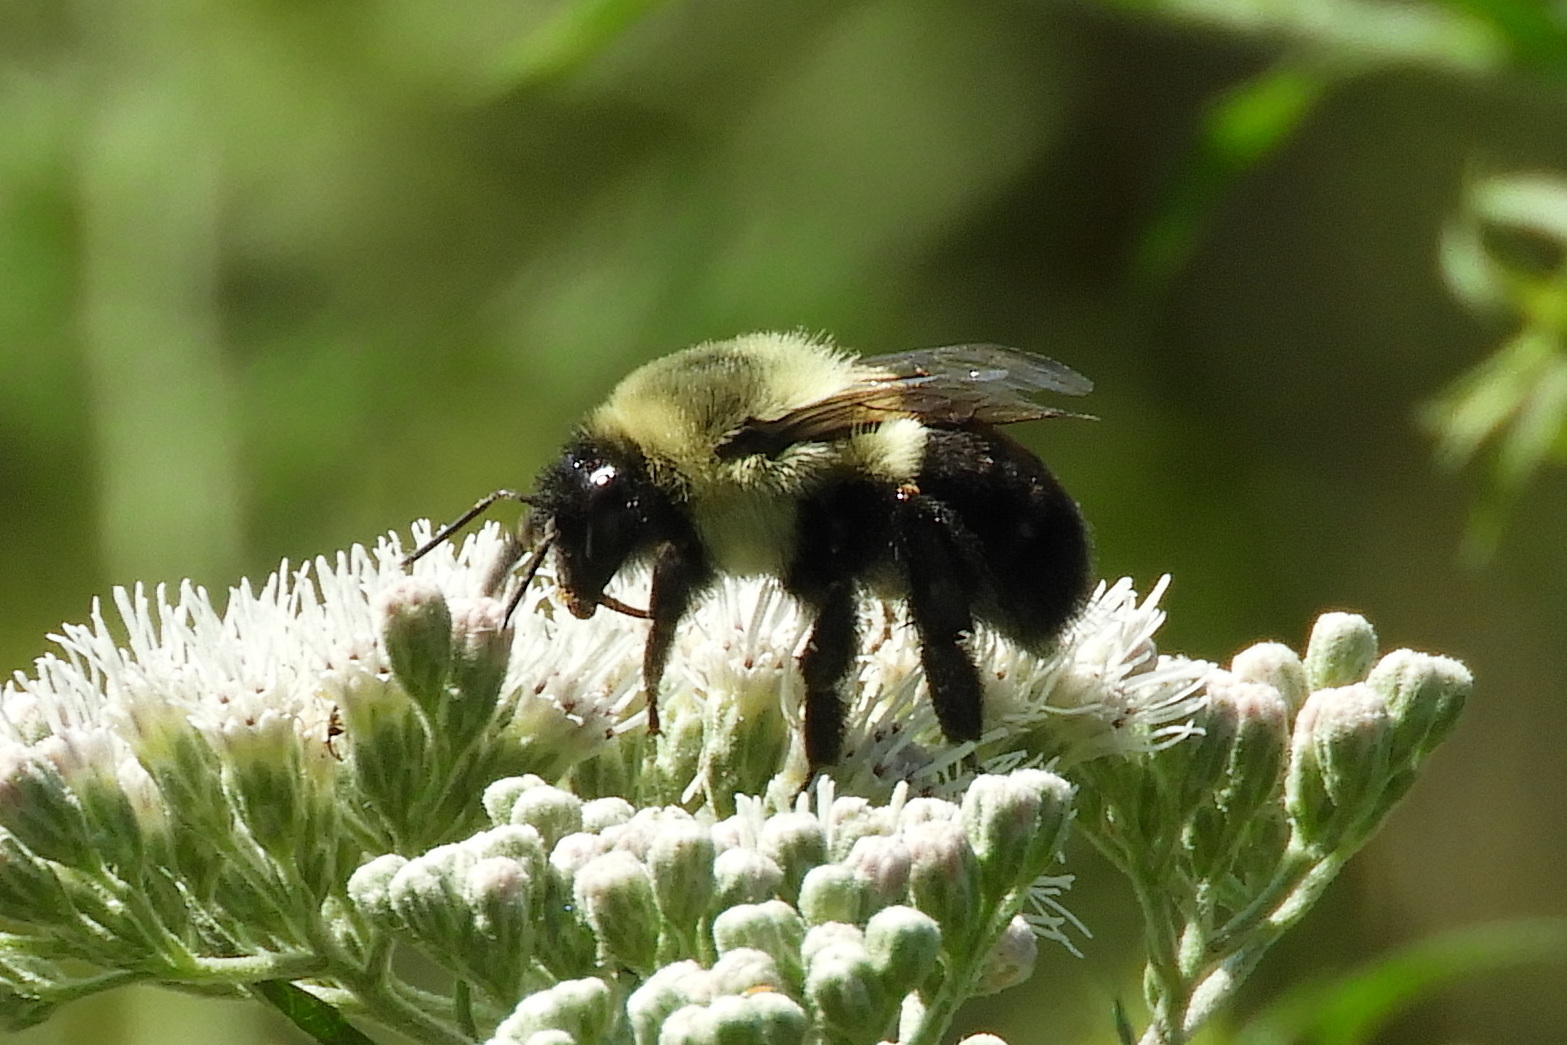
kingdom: Animalia
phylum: Arthropoda
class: Insecta
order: Hymenoptera
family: Apidae
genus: Bombus
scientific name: Bombus impatiens
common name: Common eastern bumble bee
